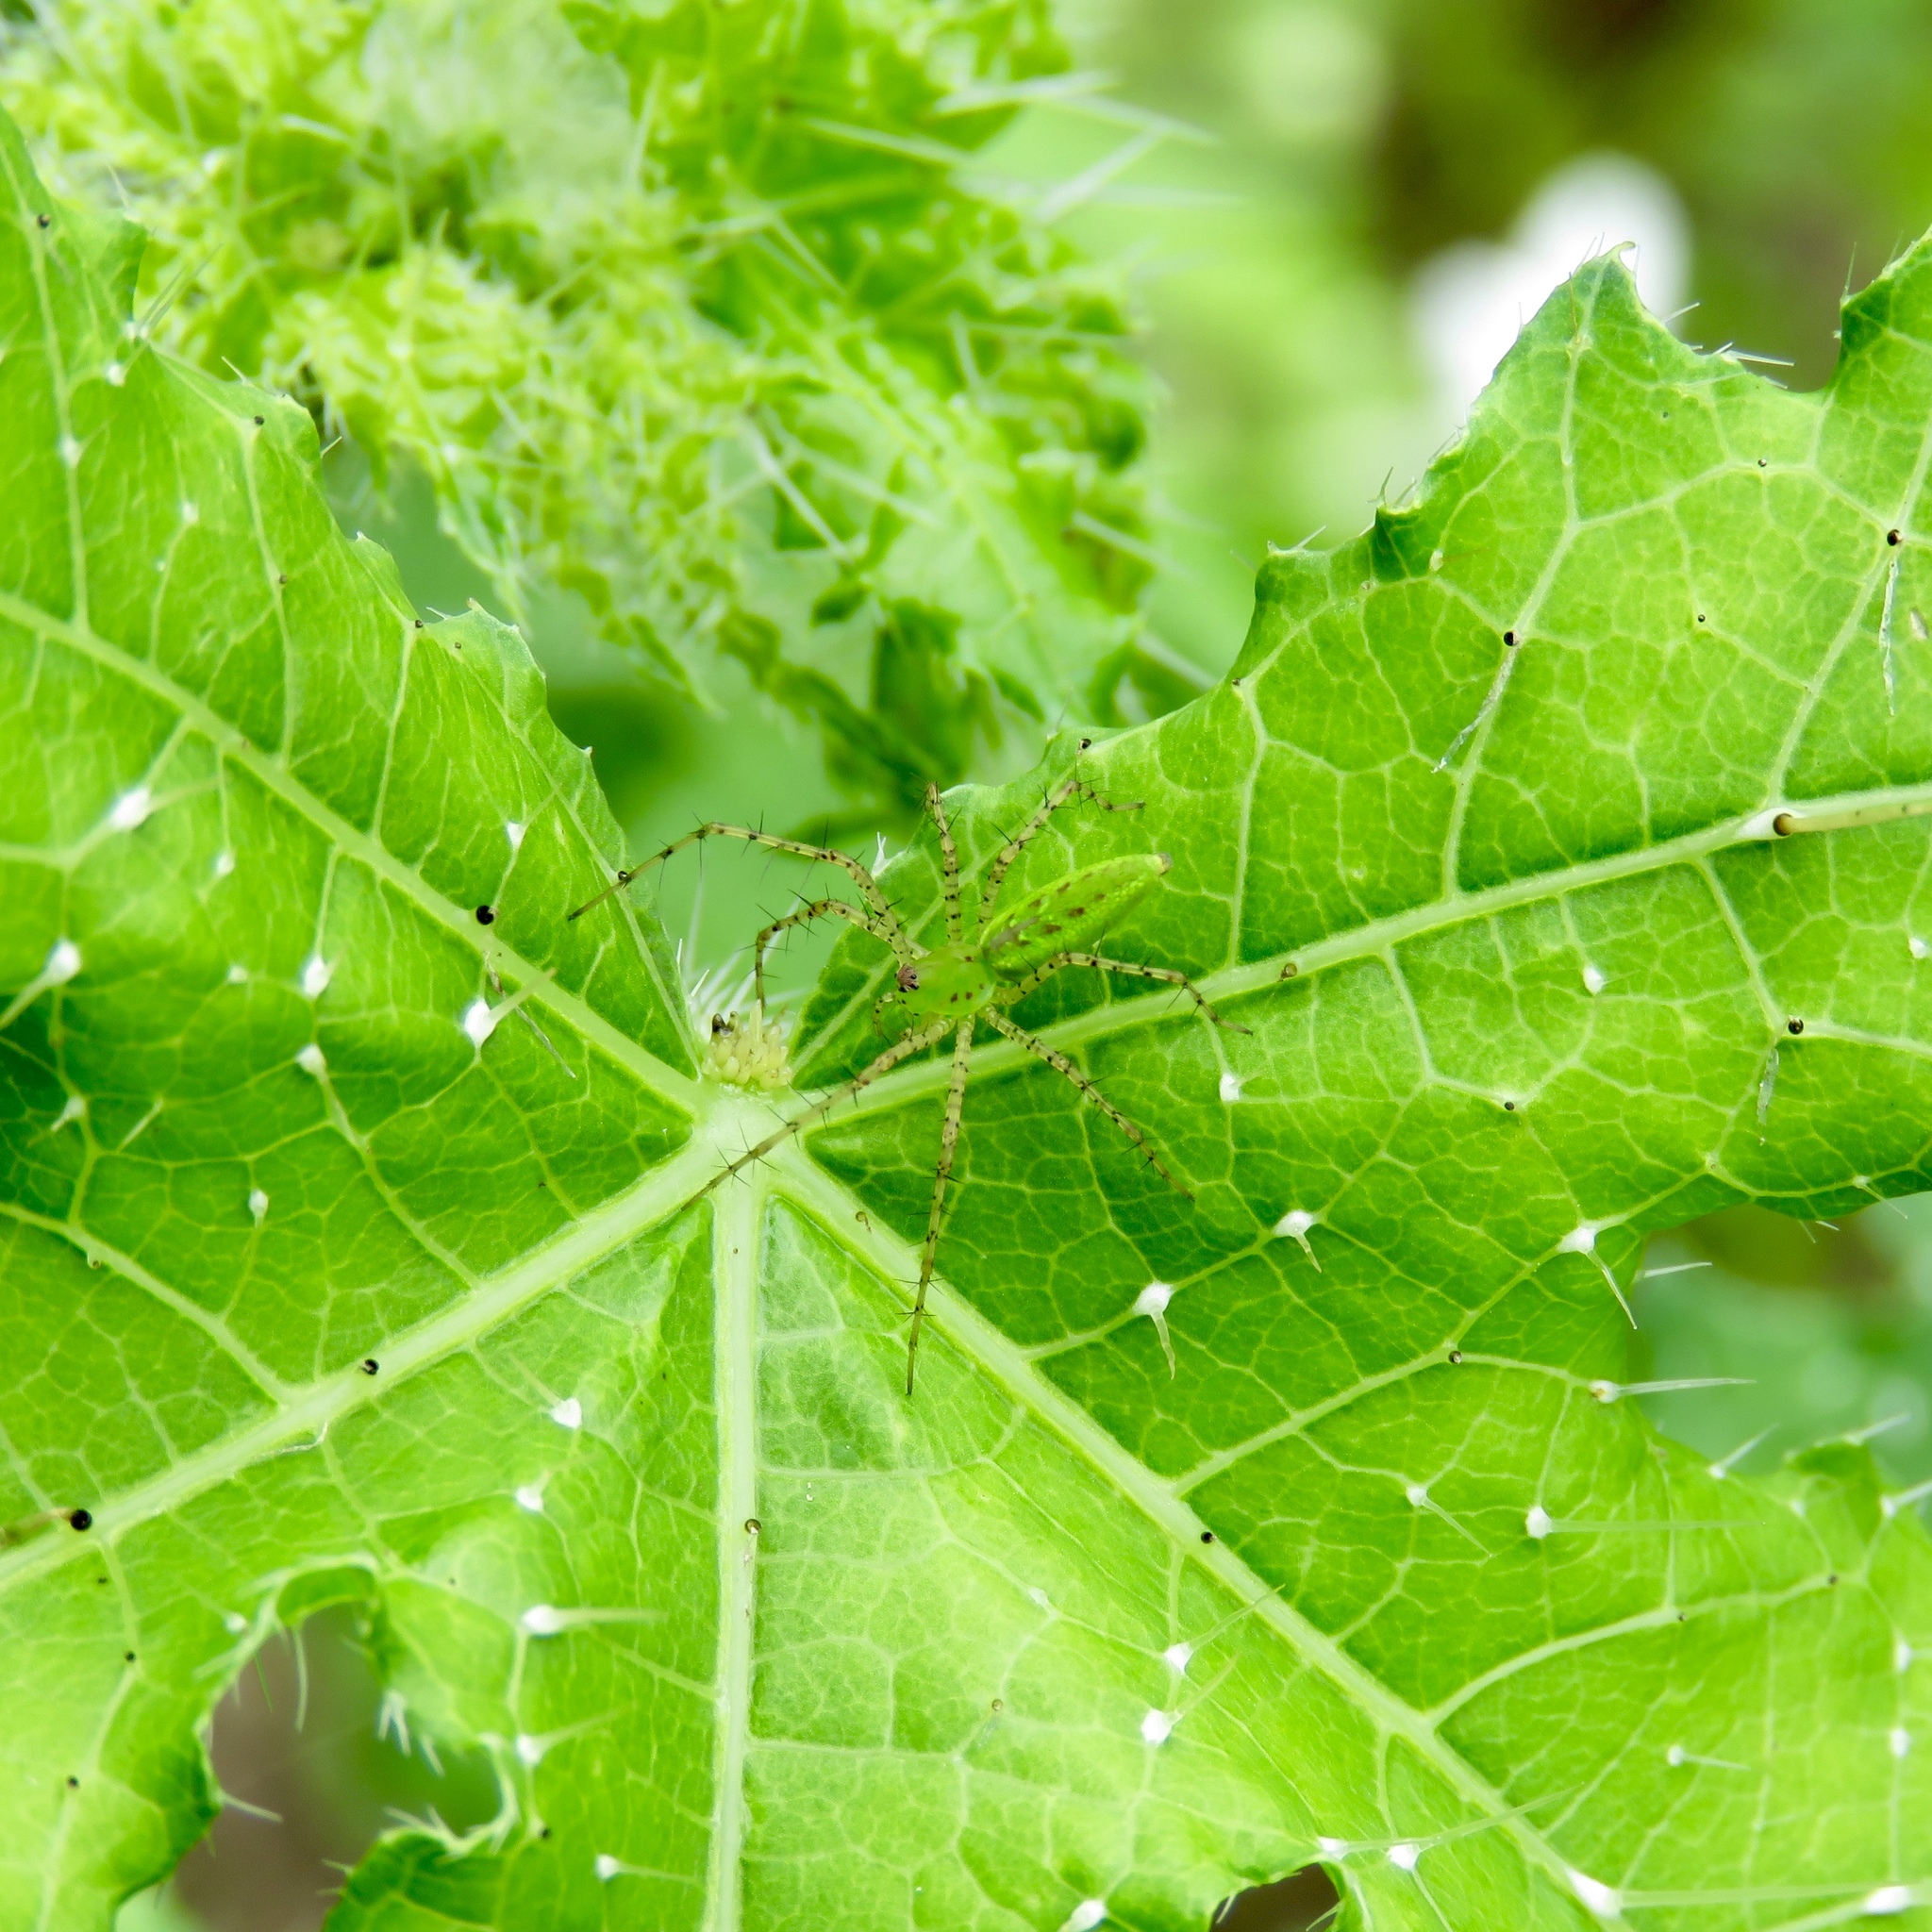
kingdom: Animalia
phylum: Arthropoda
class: Arachnida
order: Araneae
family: Oxyopidae
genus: Peucetia
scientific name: Peucetia viridans
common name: Lynx spiders
